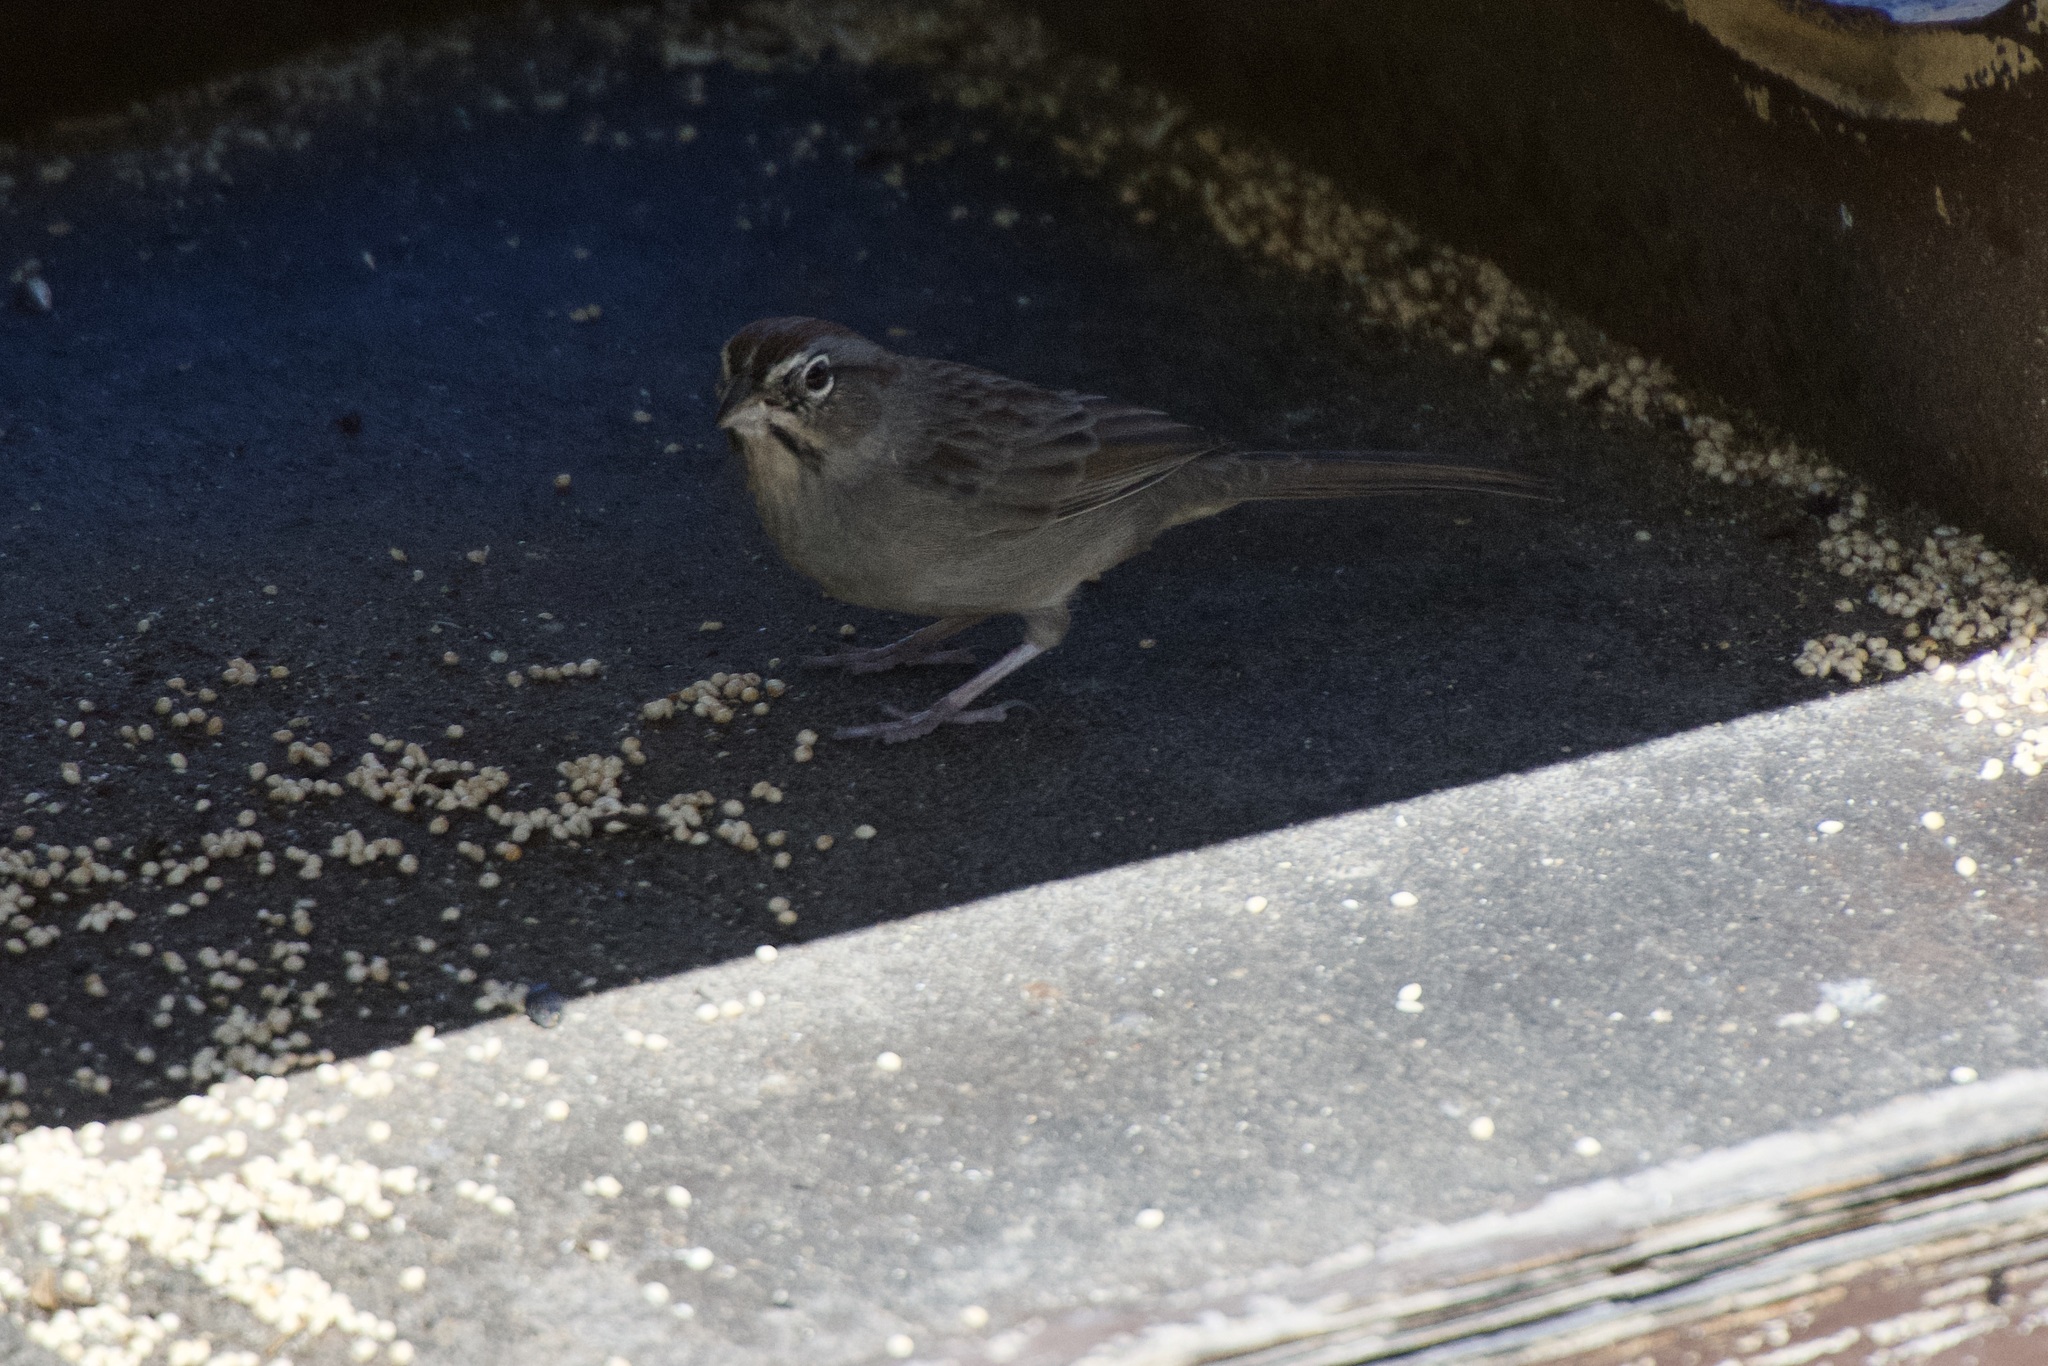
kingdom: Animalia
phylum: Chordata
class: Aves
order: Passeriformes
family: Passerellidae
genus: Aimophila
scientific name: Aimophila ruficeps
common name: Rufous-crowned sparrow
